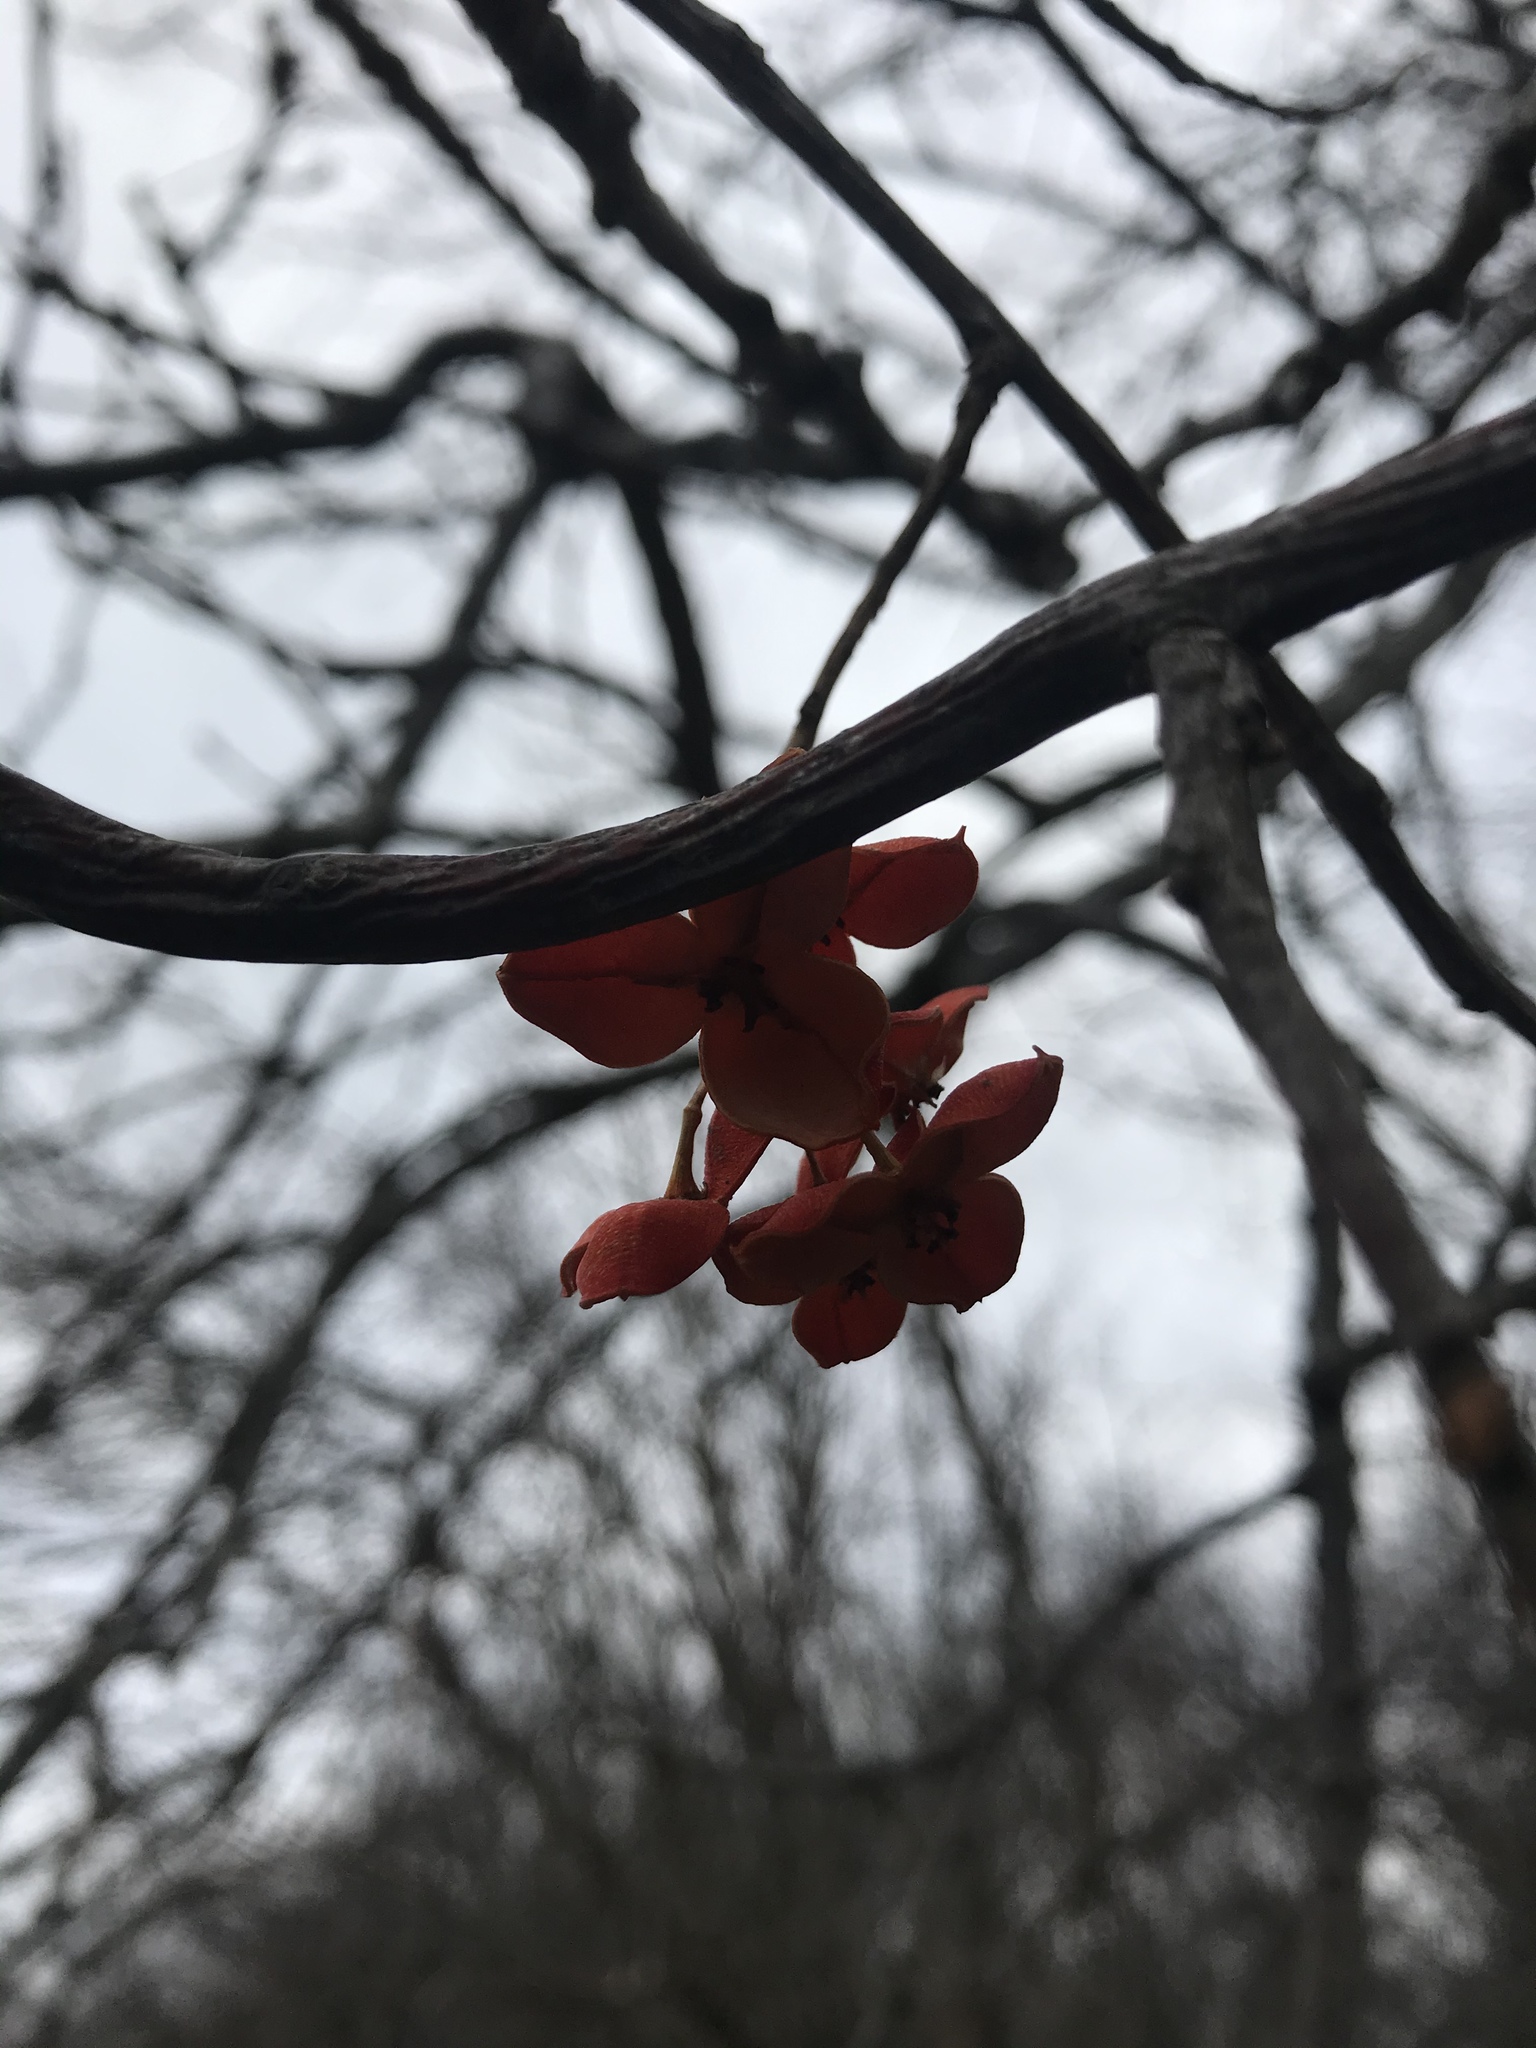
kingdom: Plantae
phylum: Tracheophyta
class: Magnoliopsida
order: Celastrales
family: Celastraceae
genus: Celastrus
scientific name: Celastrus scandens
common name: American bittersweet
